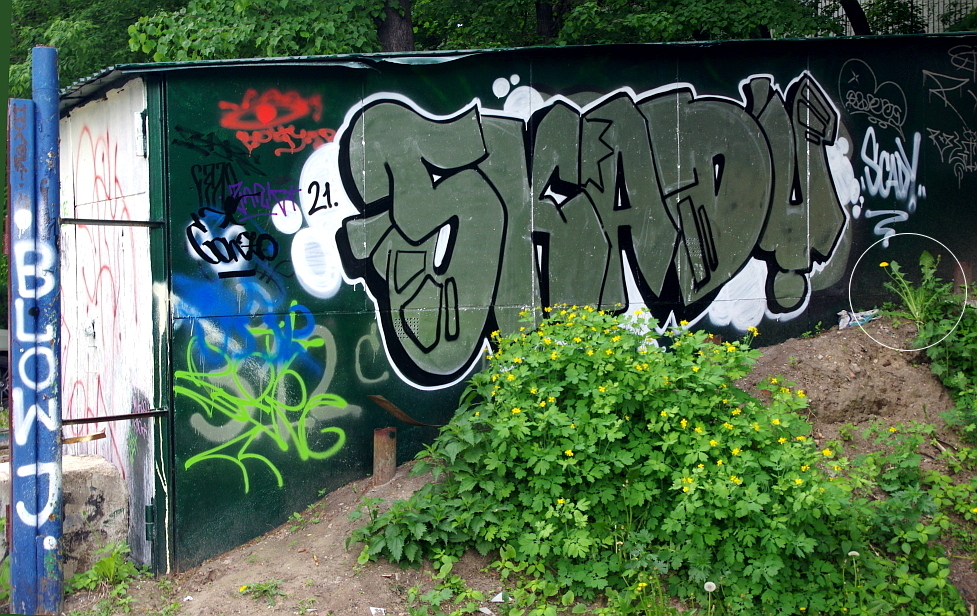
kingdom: Plantae
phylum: Tracheophyta
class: Magnoliopsida
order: Asterales
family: Asteraceae
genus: Taraxacum
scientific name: Taraxacum officinale
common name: Common dandelion
